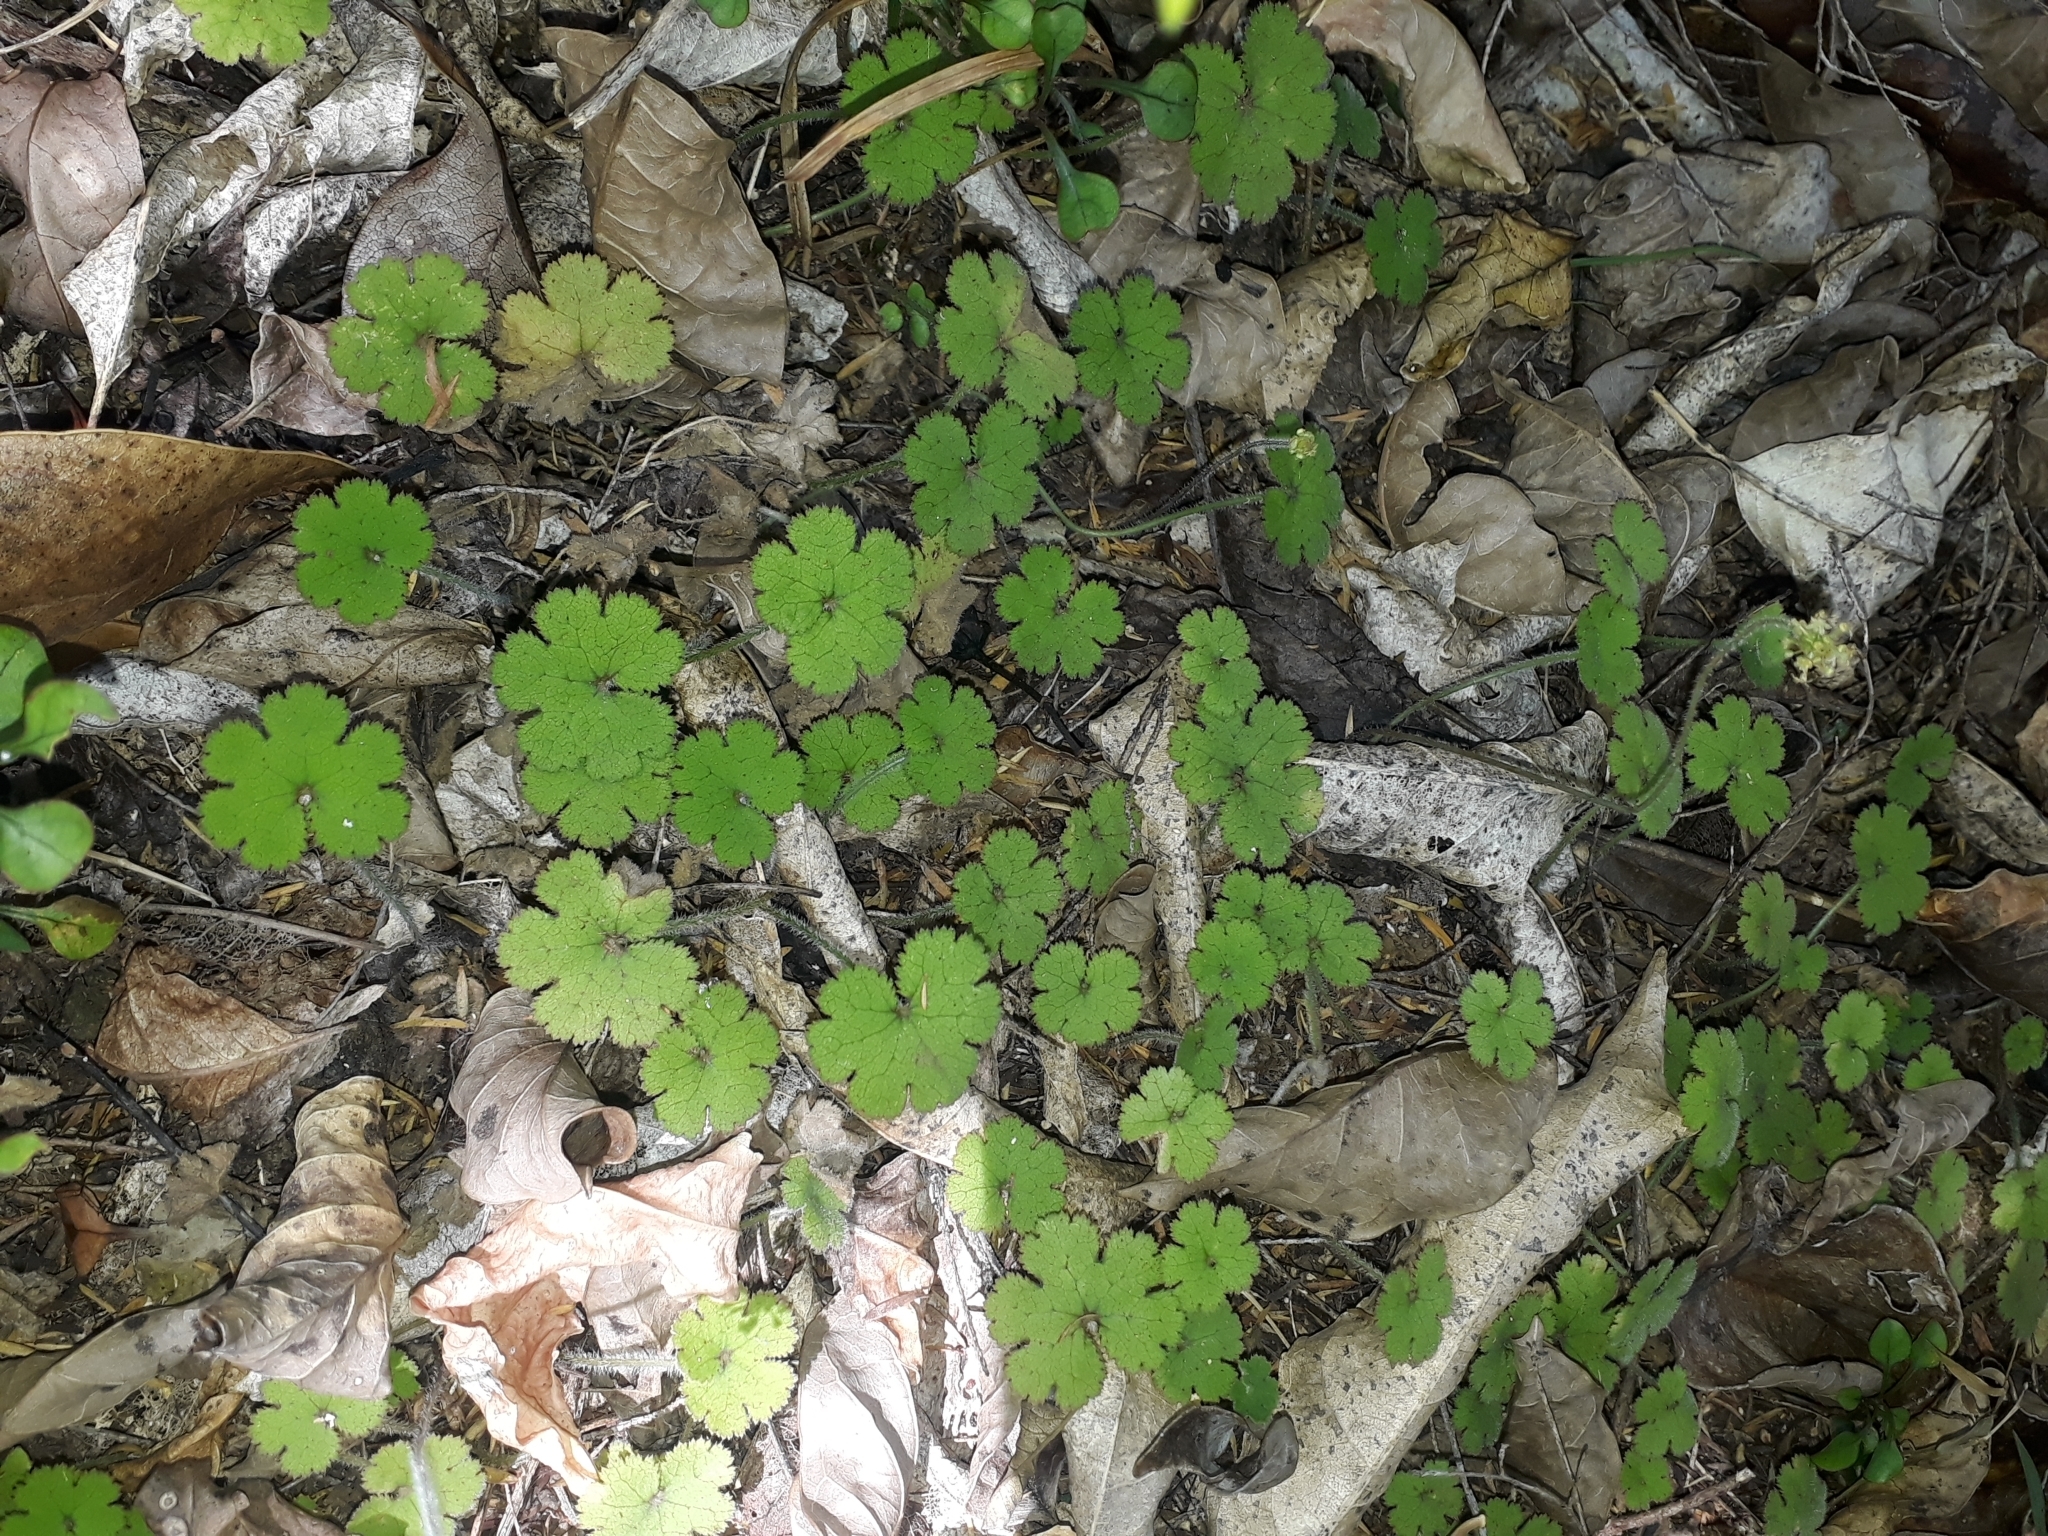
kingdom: Plantae
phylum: Tracheophyta
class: Magnoliopsida
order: Apiales
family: Araliaceae
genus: Hydrocotyle
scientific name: Hydrocotyle elongata
